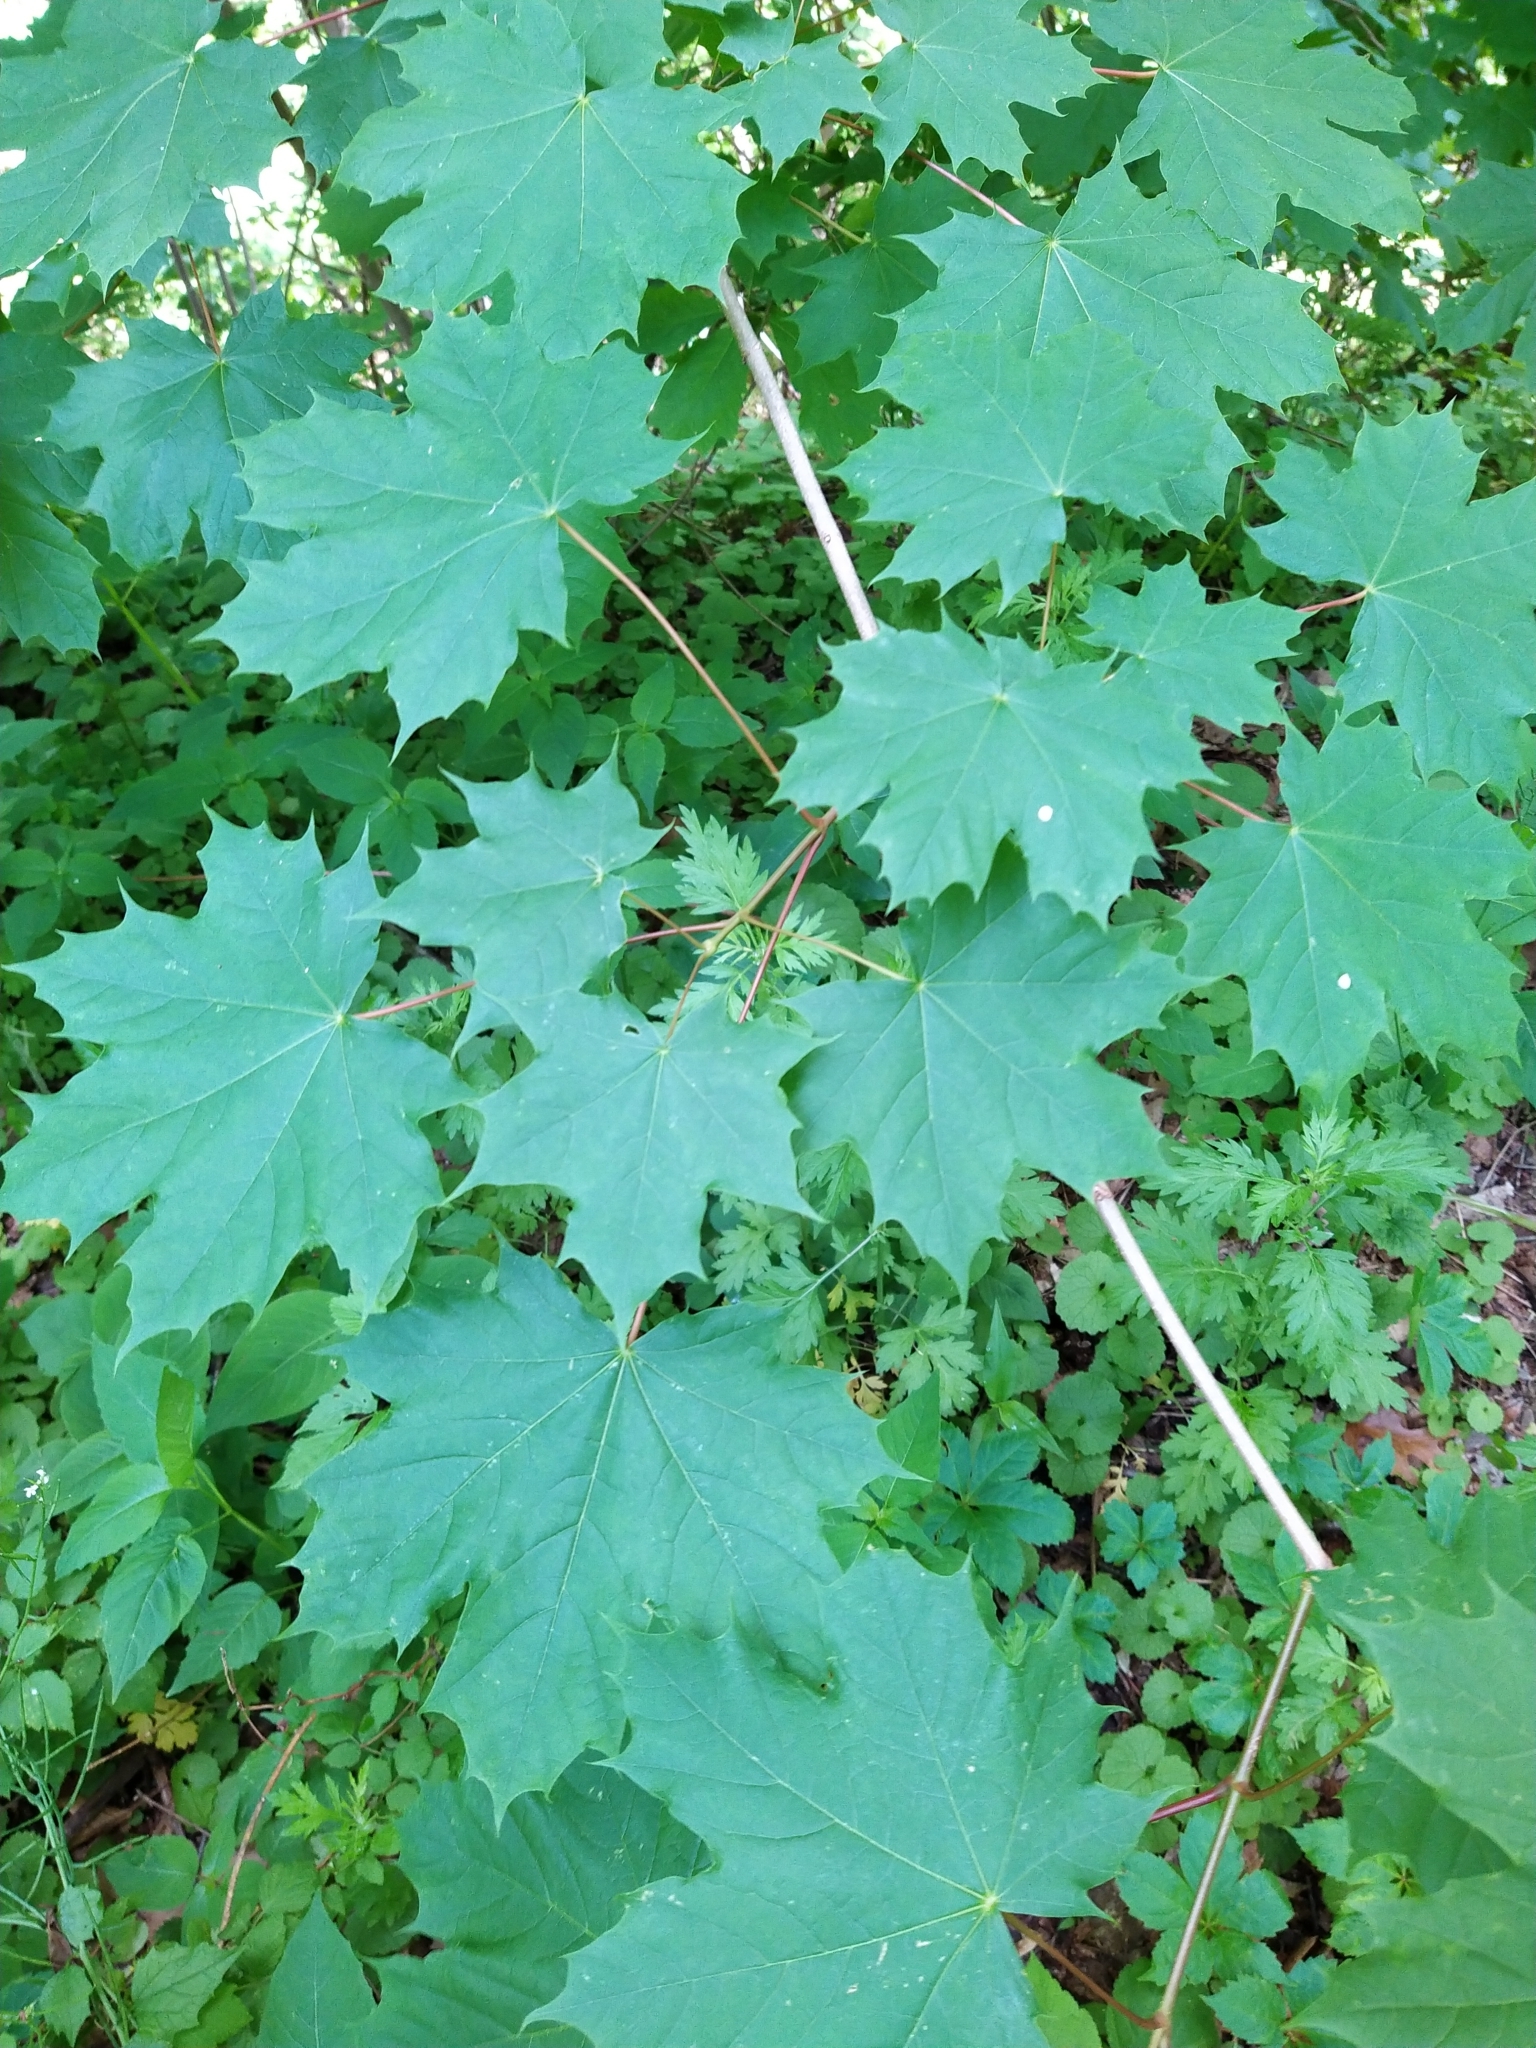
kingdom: Plantae
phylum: Tracheophyta
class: Magnoliopsida
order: Sapindales
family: Sapindaceae
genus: Acer
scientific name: Acer platanoides
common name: Norway maple
